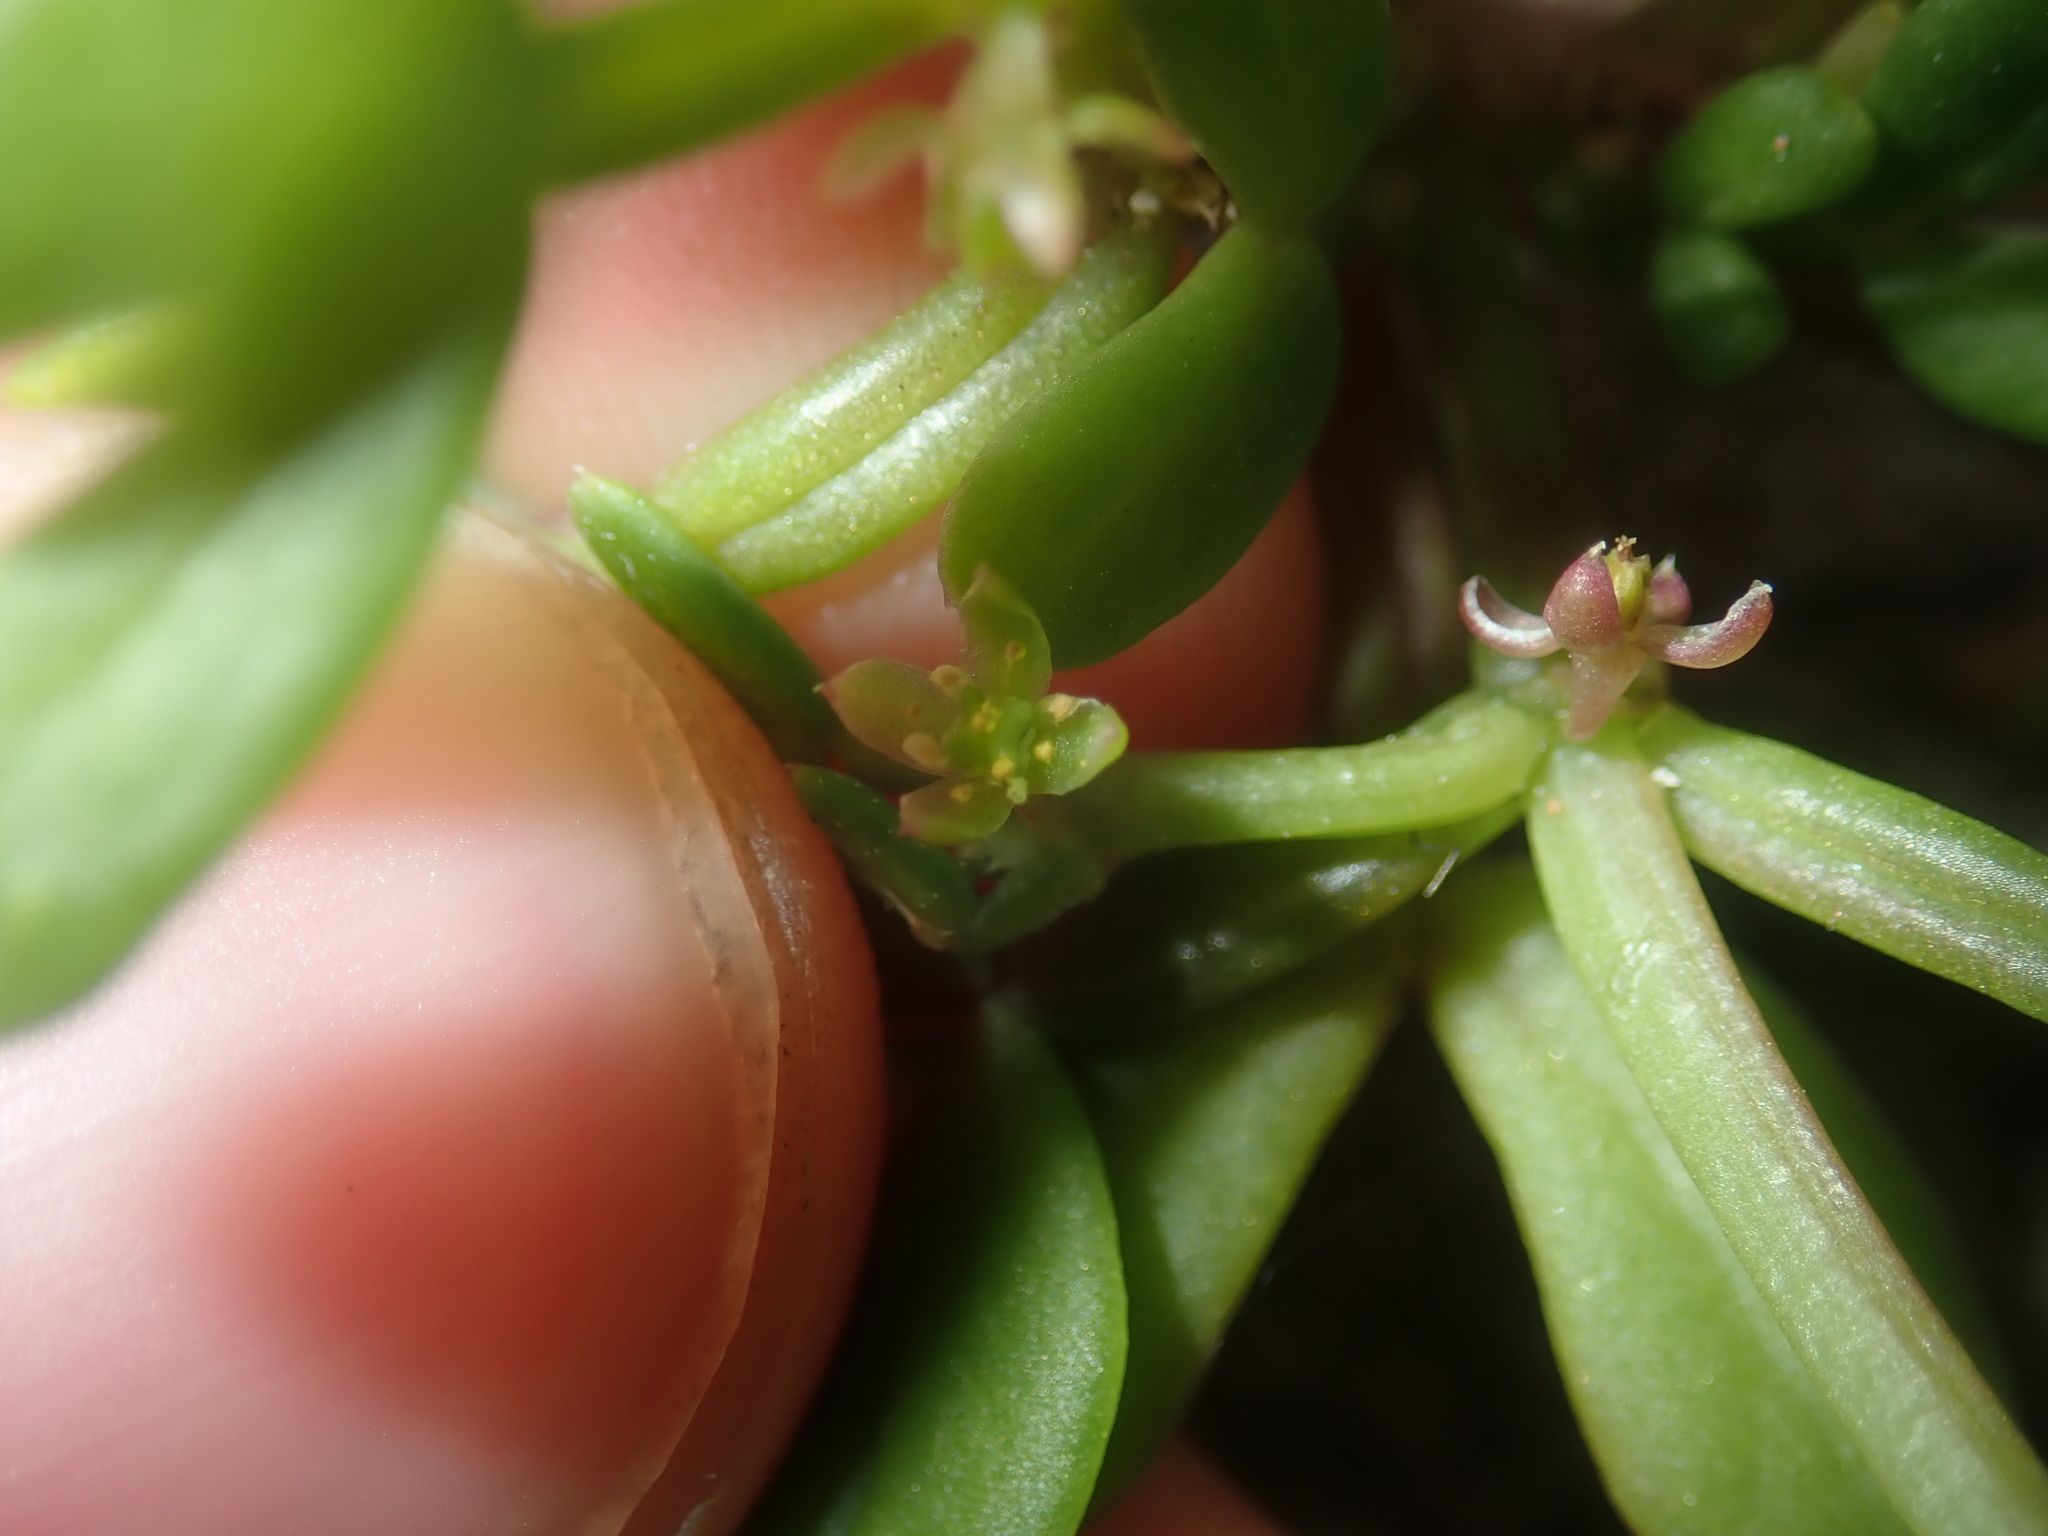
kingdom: Plantae
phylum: Tracheophyta
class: Magnoliopsida
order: Zygophyllales
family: Zygophyllaceae
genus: Roepera
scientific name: Roepera similis
